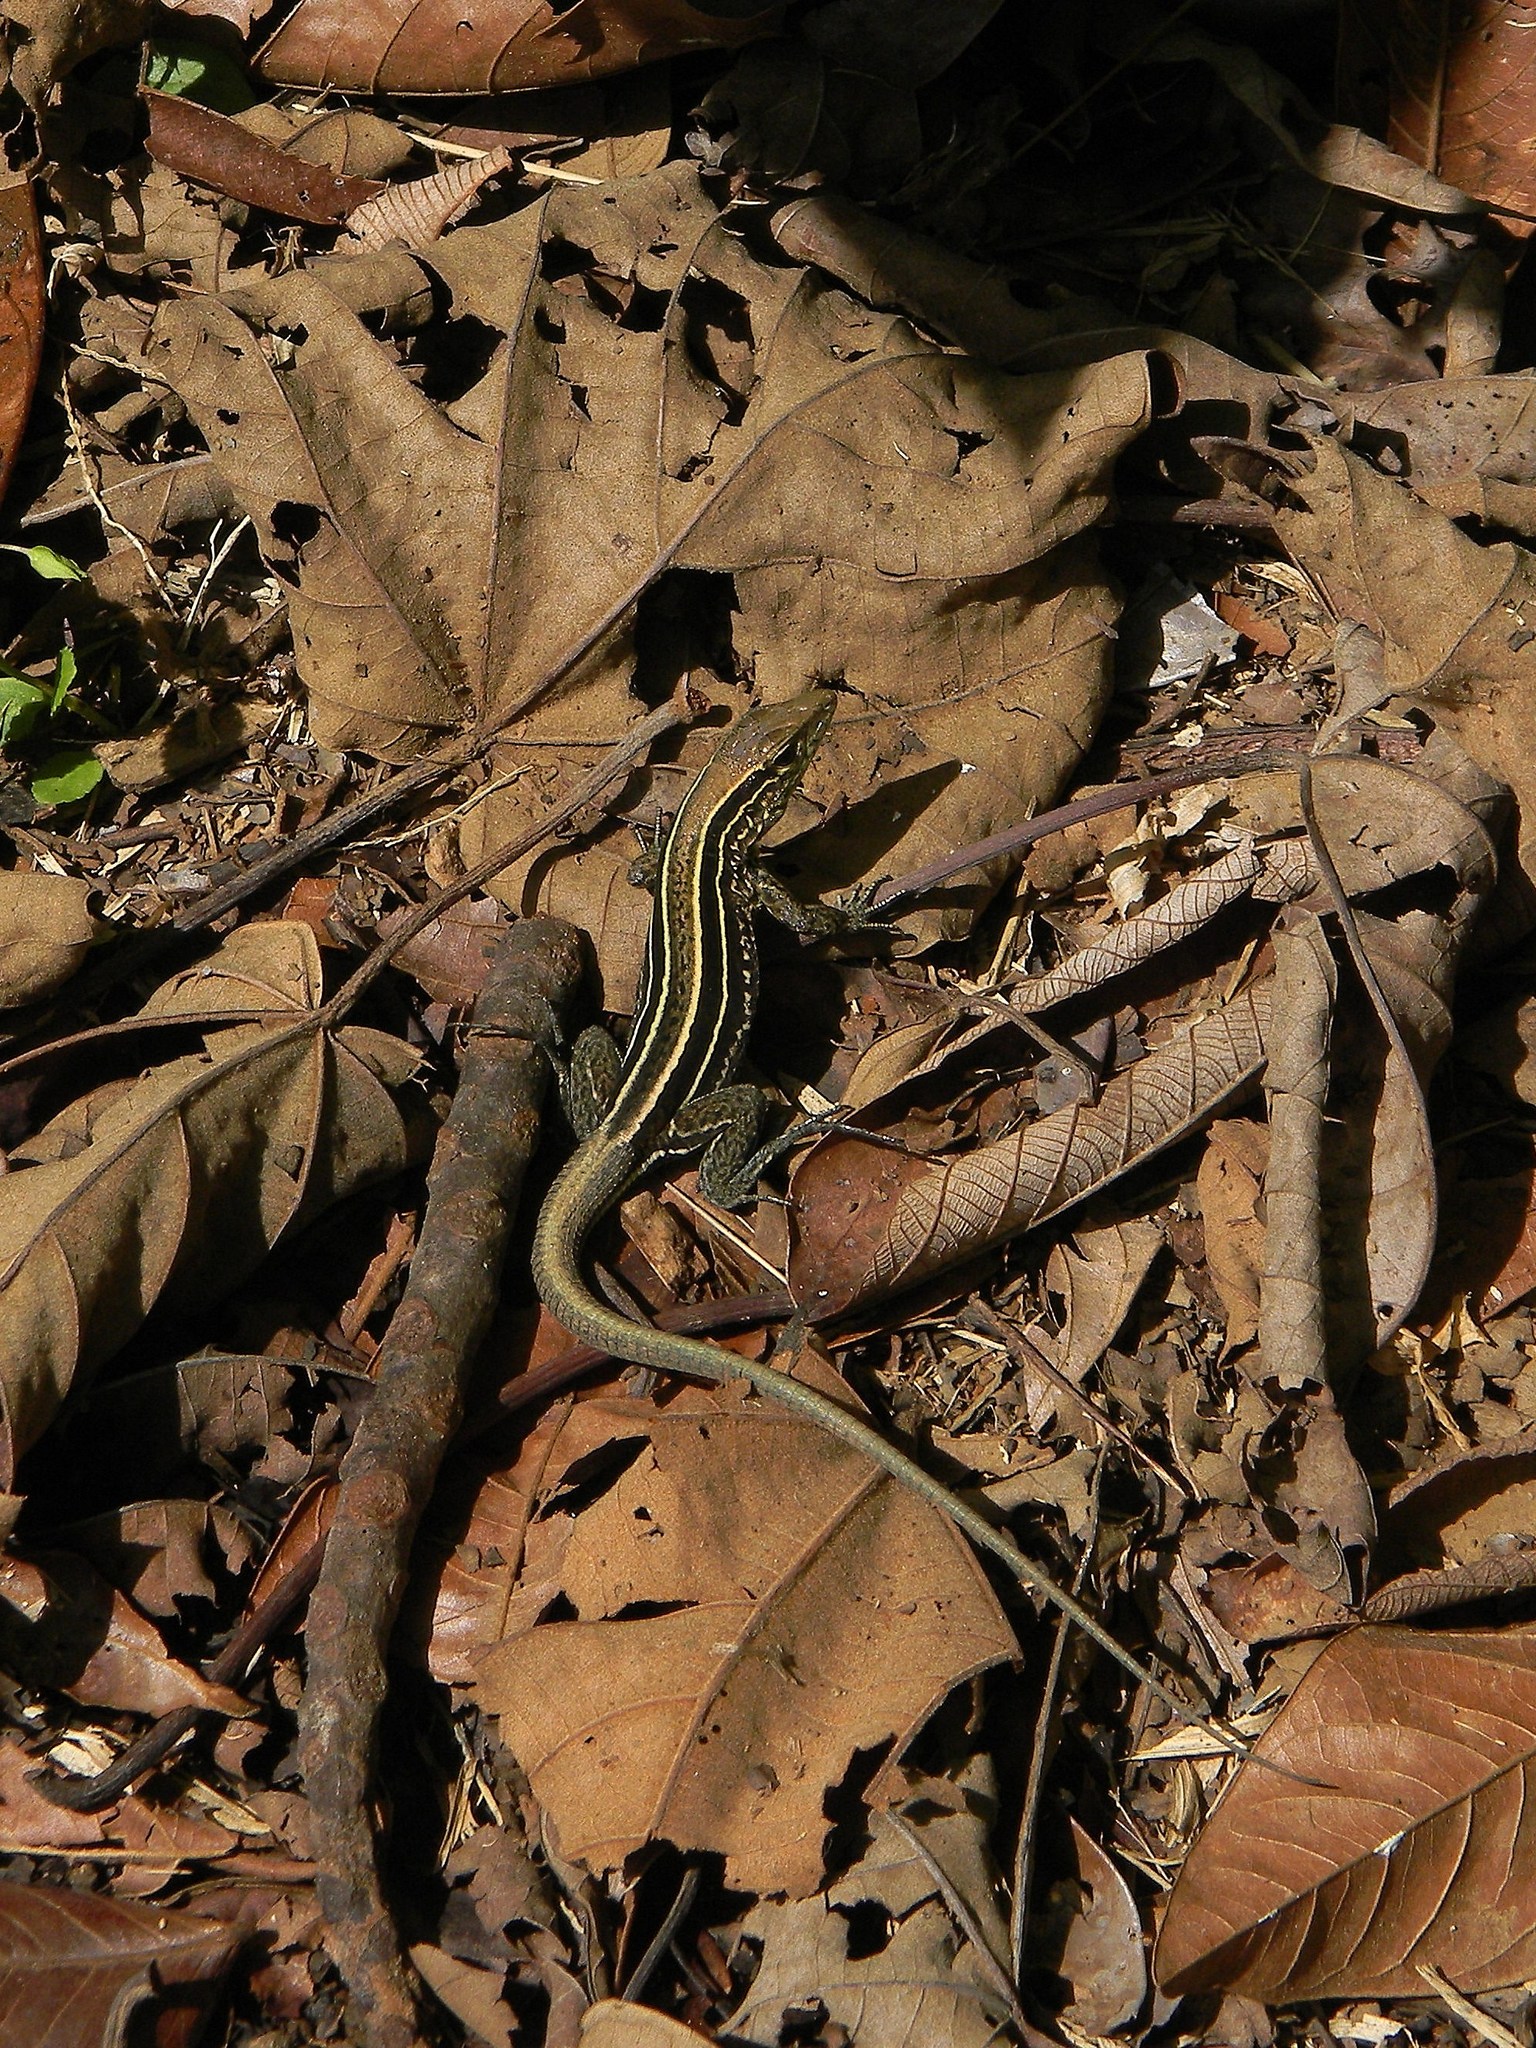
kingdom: Animalia
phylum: Chordata
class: Squamata
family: Teiidae
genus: Holcosus
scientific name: Holcosus quadrilineatus
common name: Four-lined ameiva
